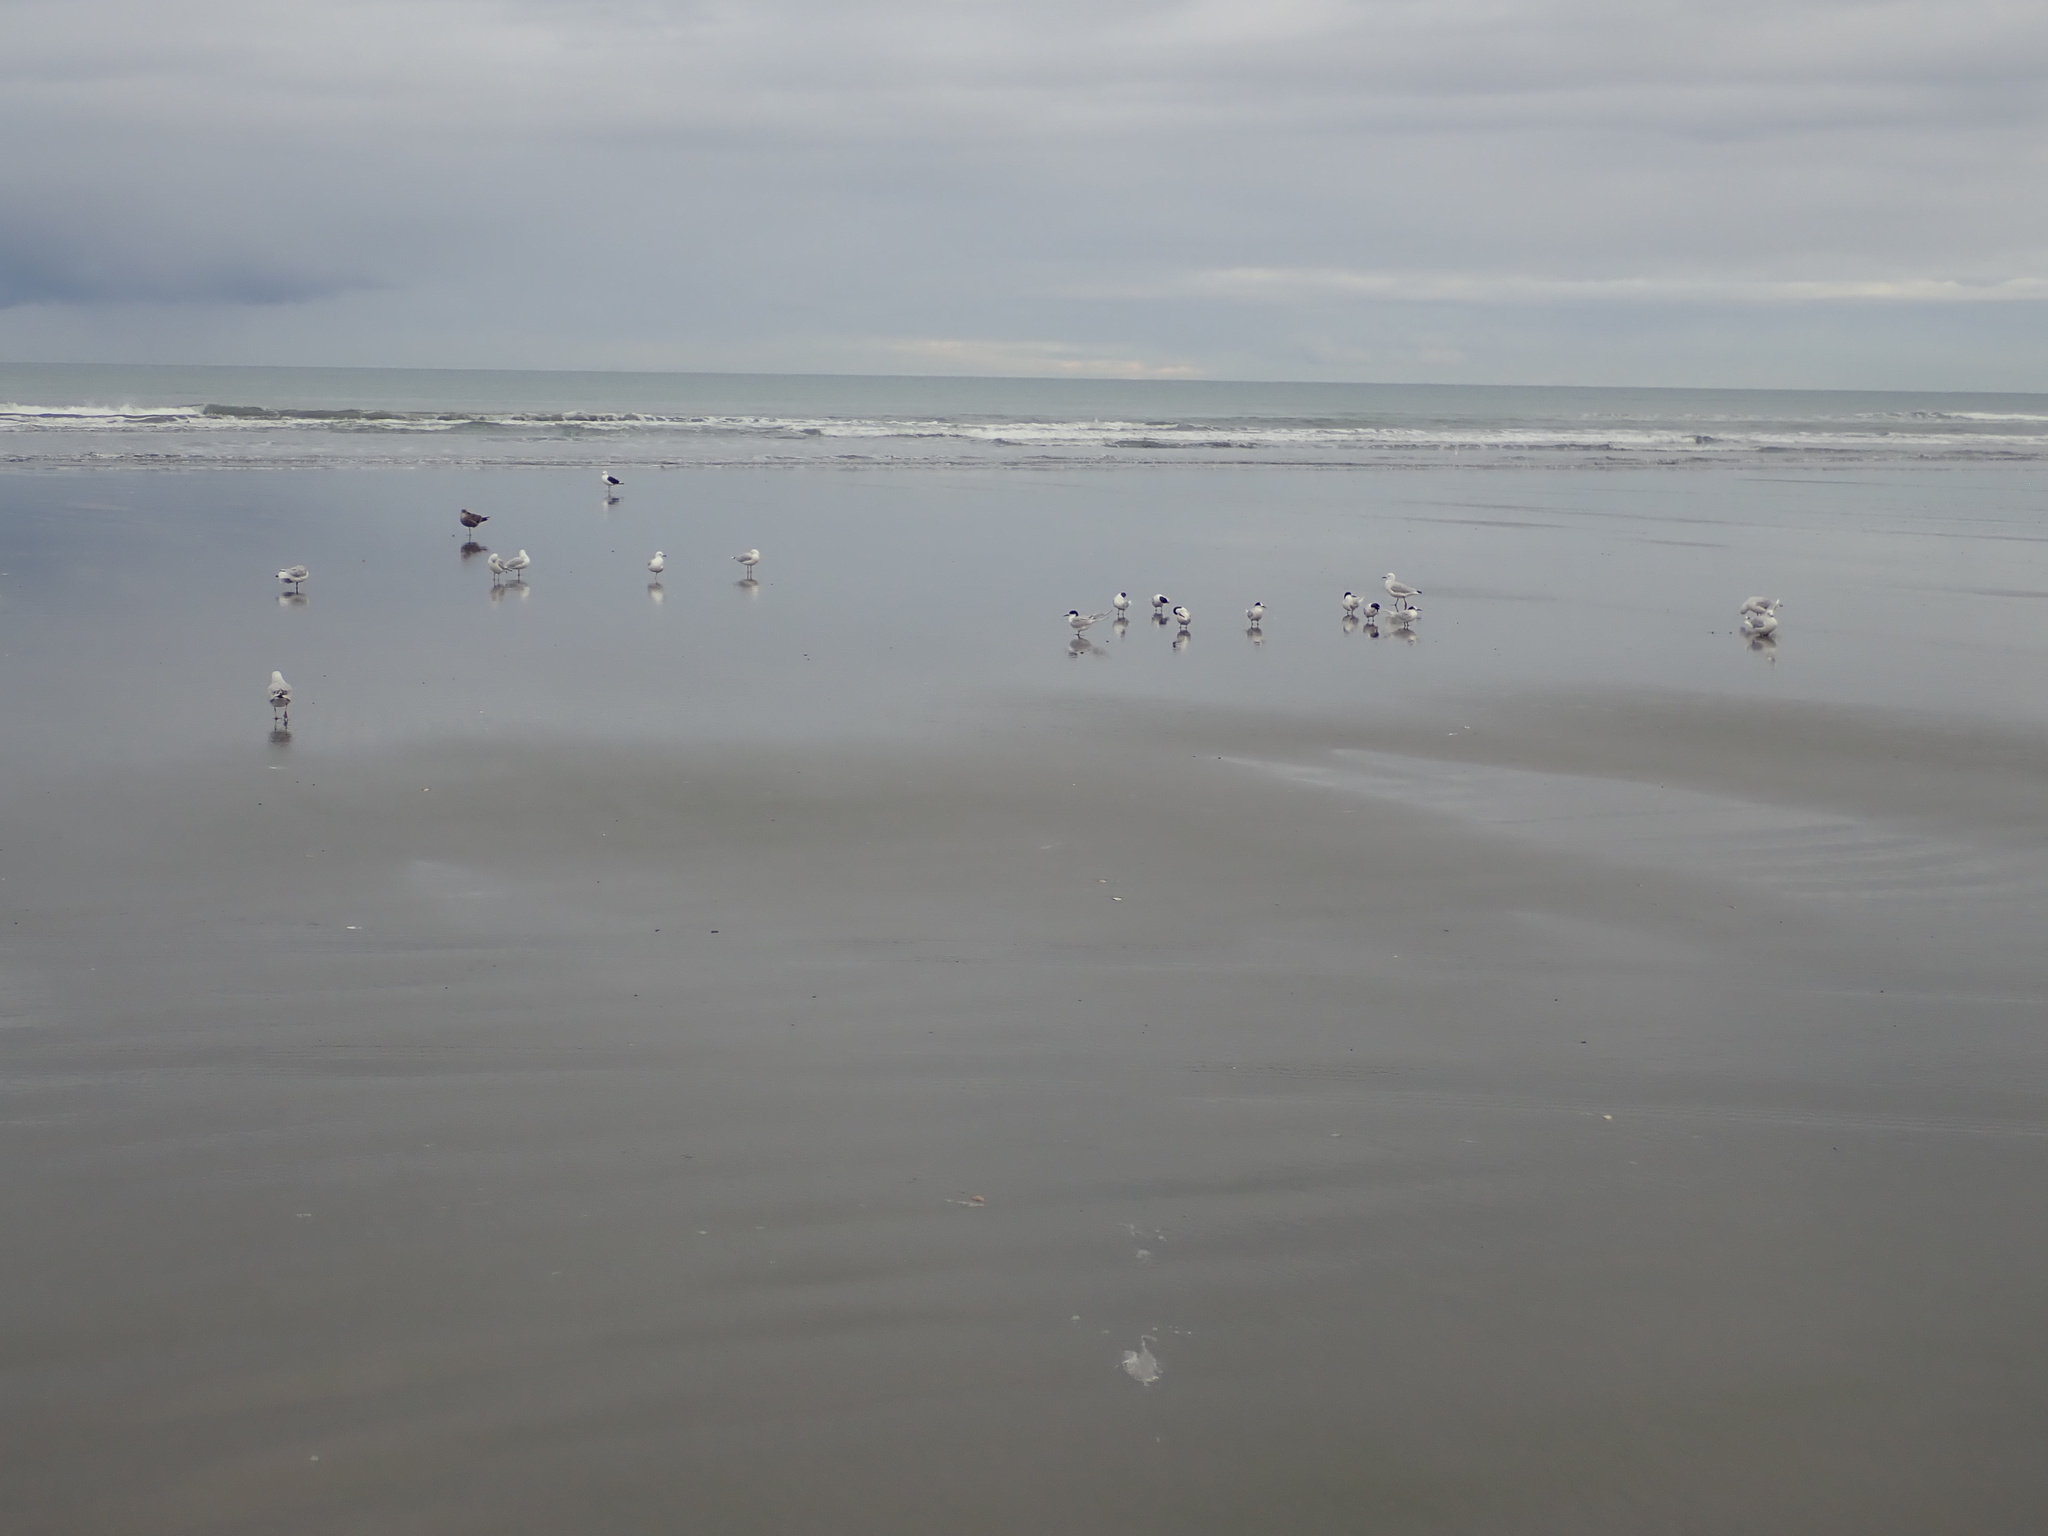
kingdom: Animalia
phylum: Chordata
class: Aves
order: Charadriiformes
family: Laridae
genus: Sterna
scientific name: Sterna striata
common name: White-fronted tern
